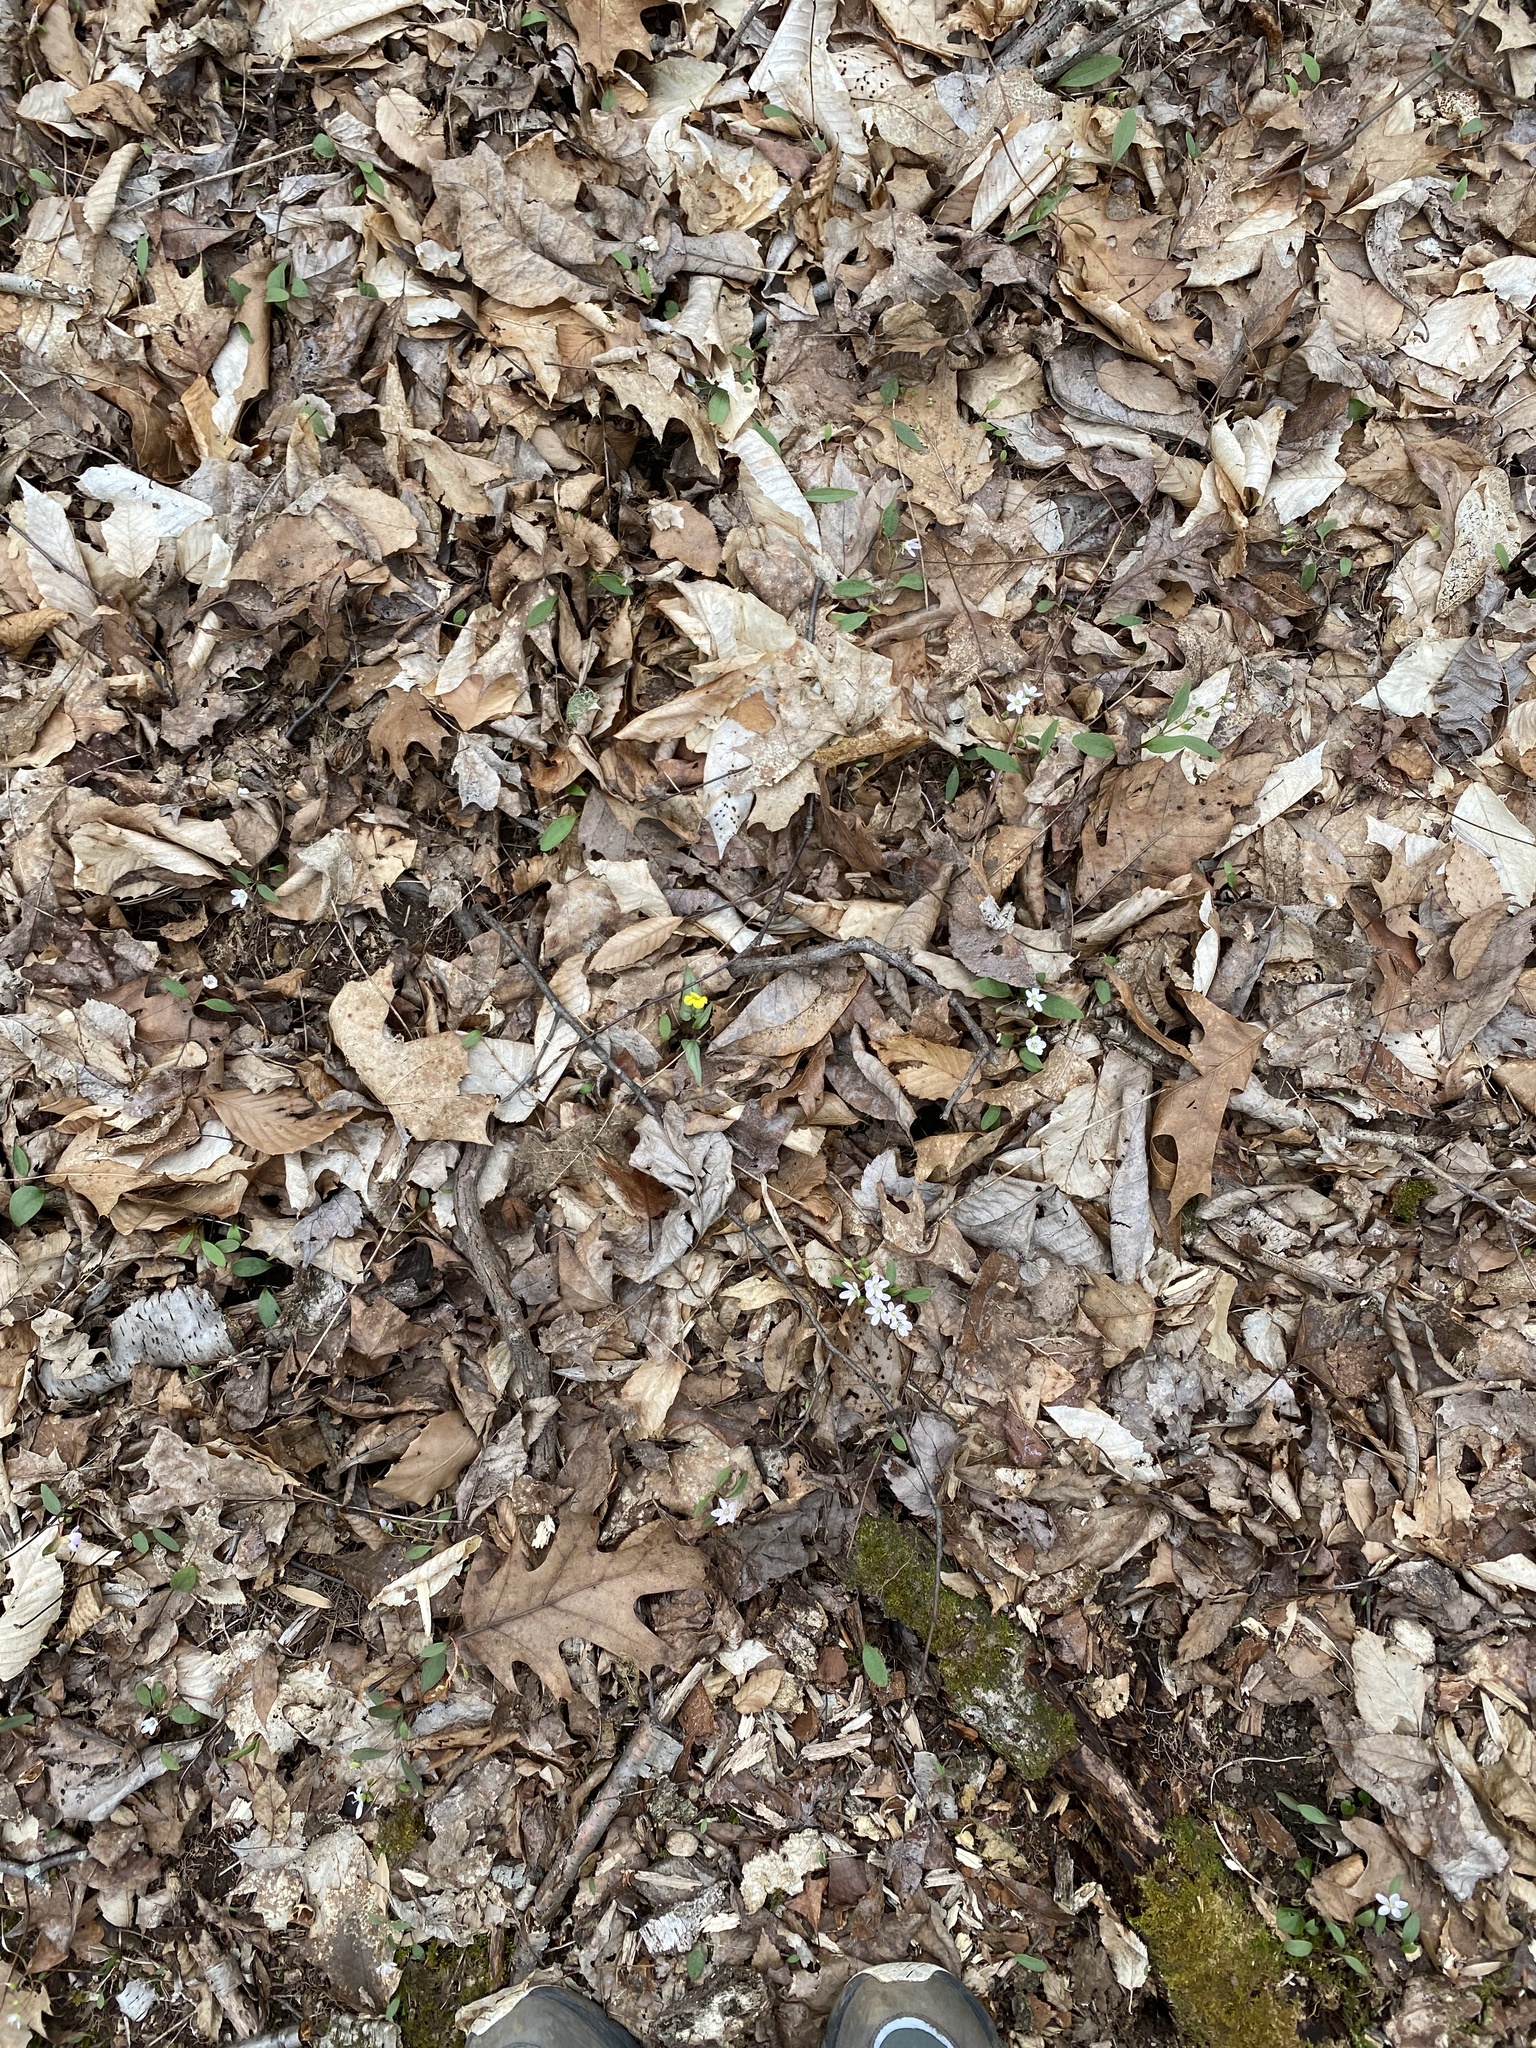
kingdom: Plantae
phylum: Tracheophyta
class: Magnoliopsida
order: Malpighiales
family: Violaceae
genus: Viola
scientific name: Viola hastata
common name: Spear-leaf violet
